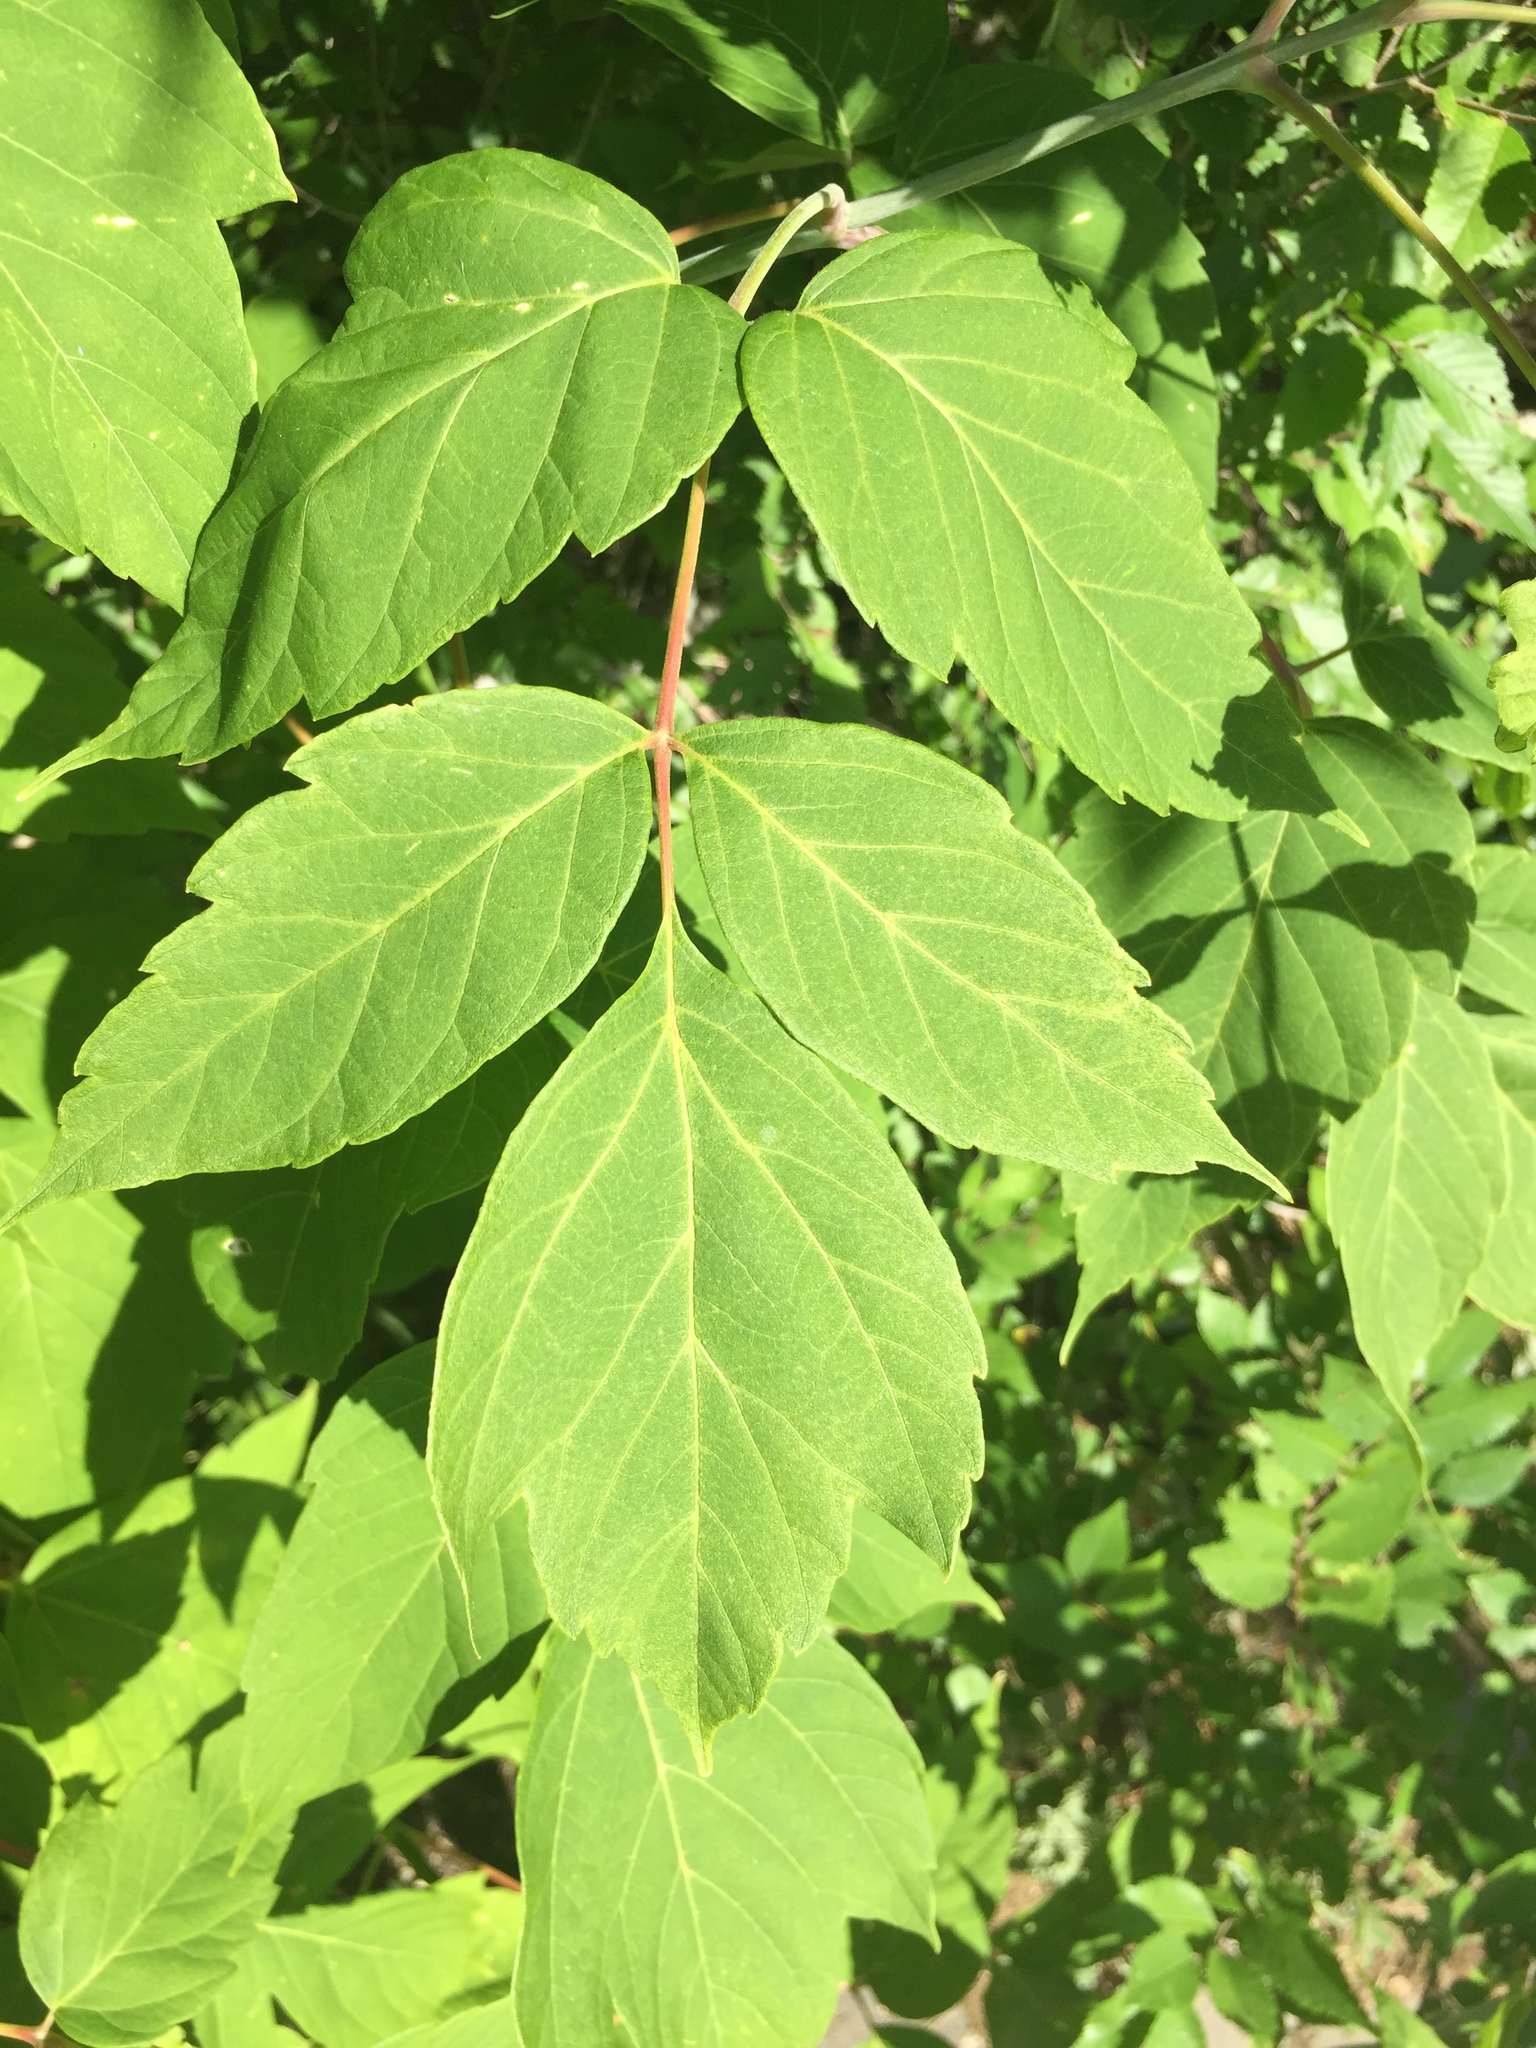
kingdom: Plantae
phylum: Tracheophyta
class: Magnoliopsida
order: Sapindales
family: Sapindaceae
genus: Acer
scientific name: Acer negundo
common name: Ashleaf maple
